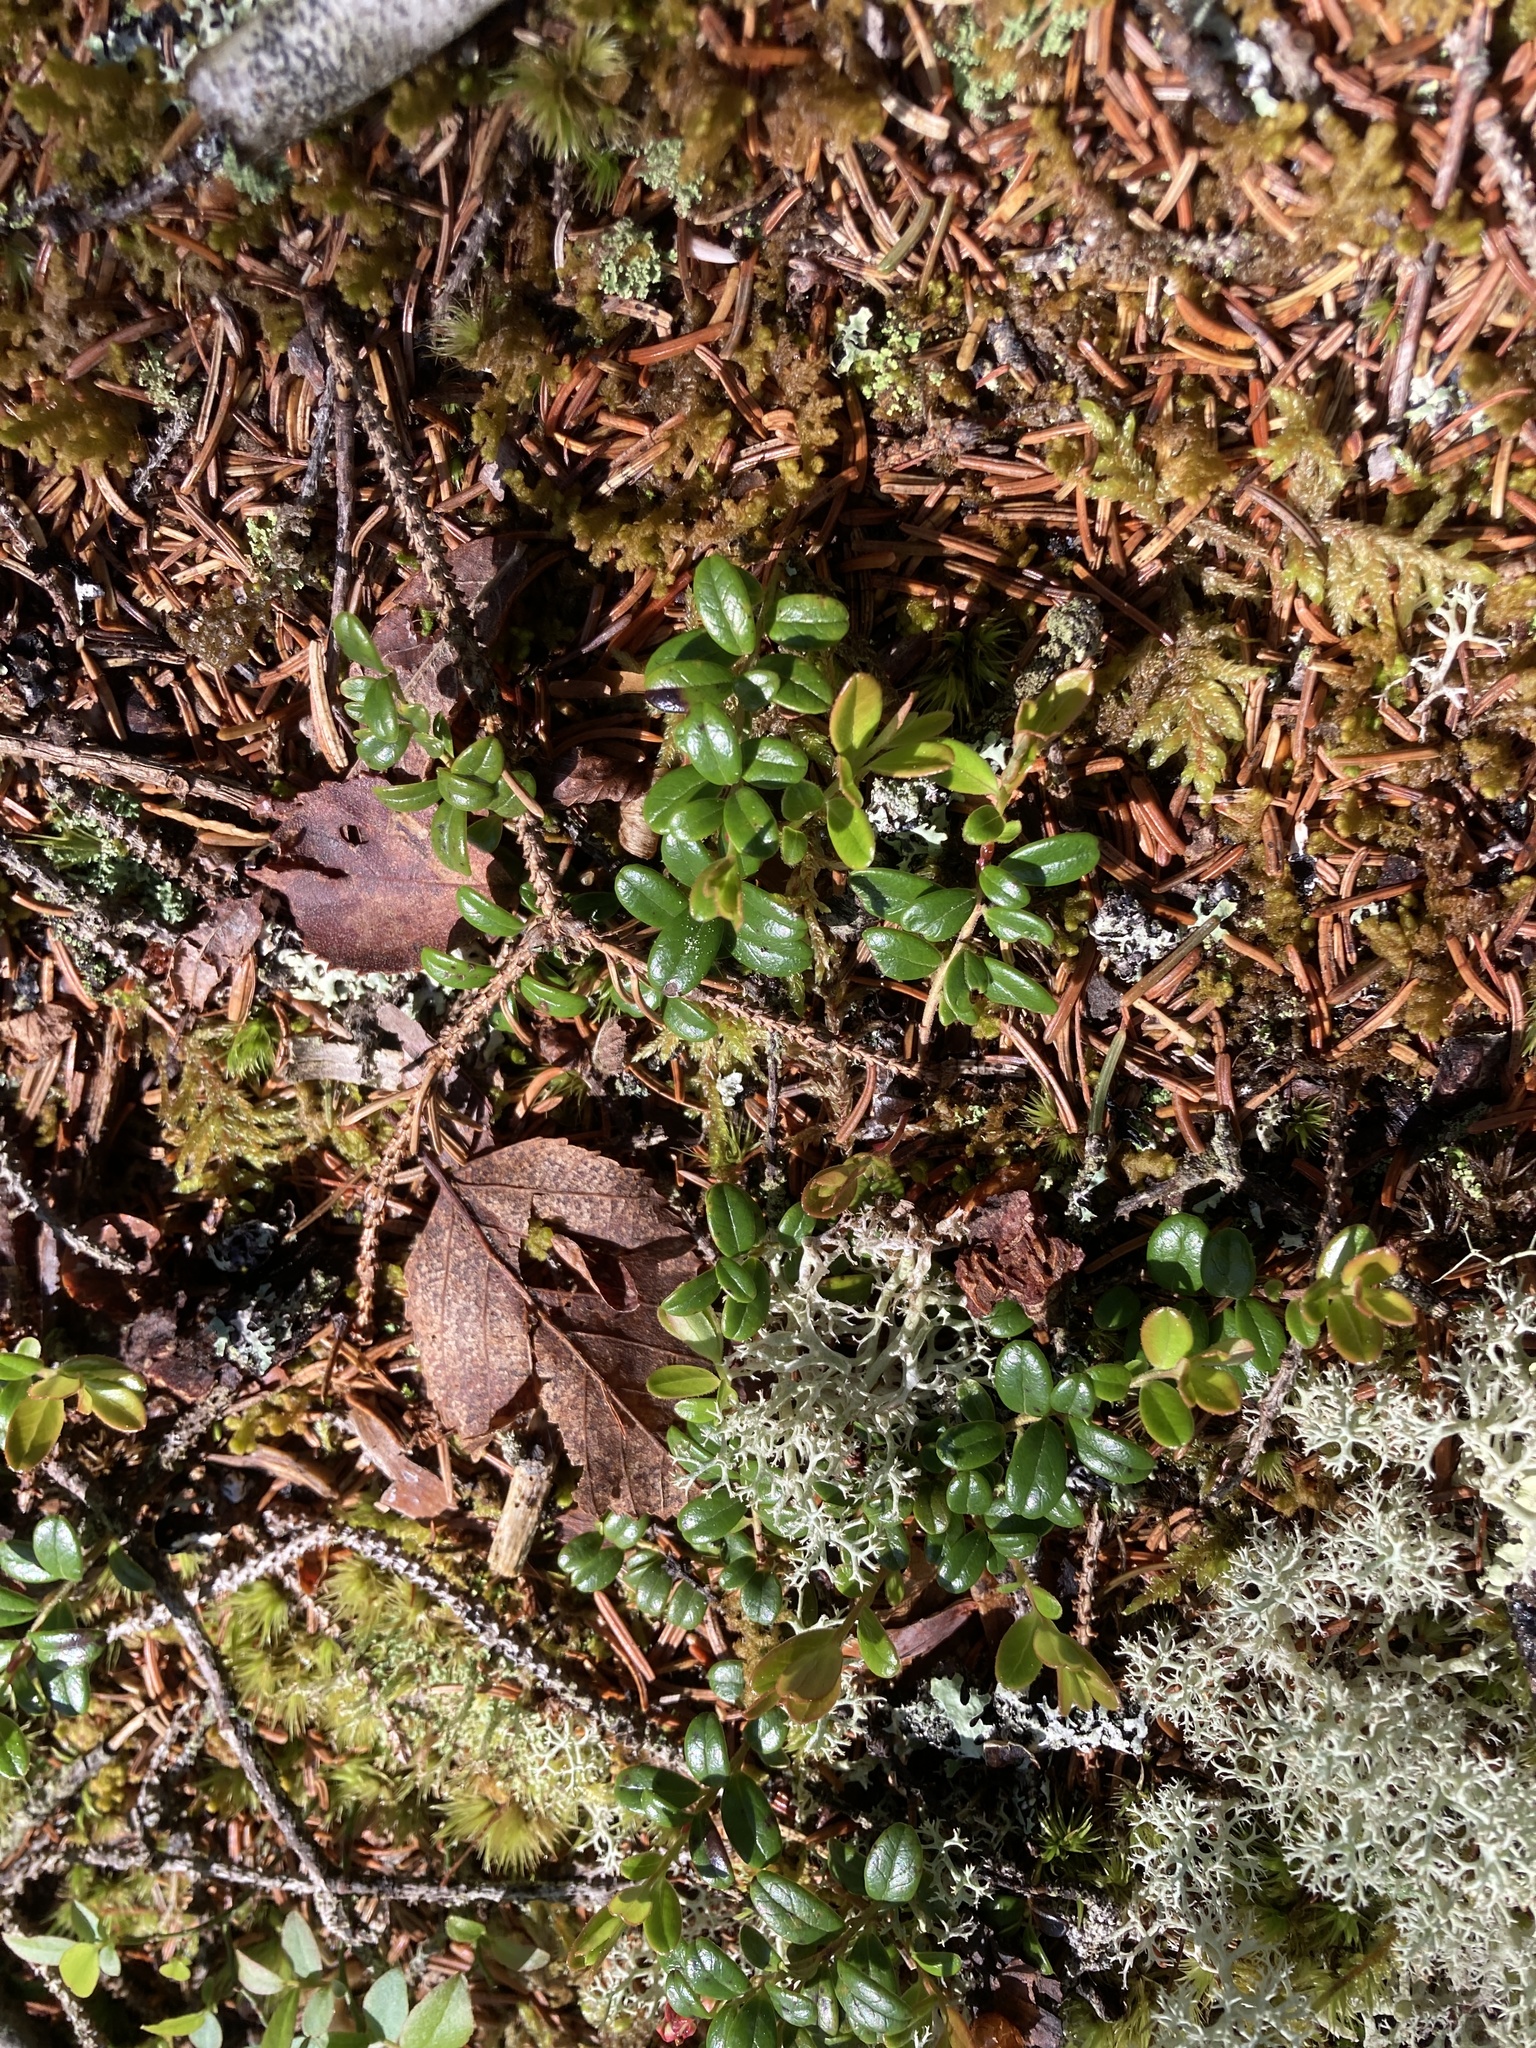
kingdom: Plantae
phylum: Tracheophyta
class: Magnoliopsida
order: Ericales
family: Ericaceae
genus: Vaccinium
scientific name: Vaccinium vitis-idaea
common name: Cowberry
